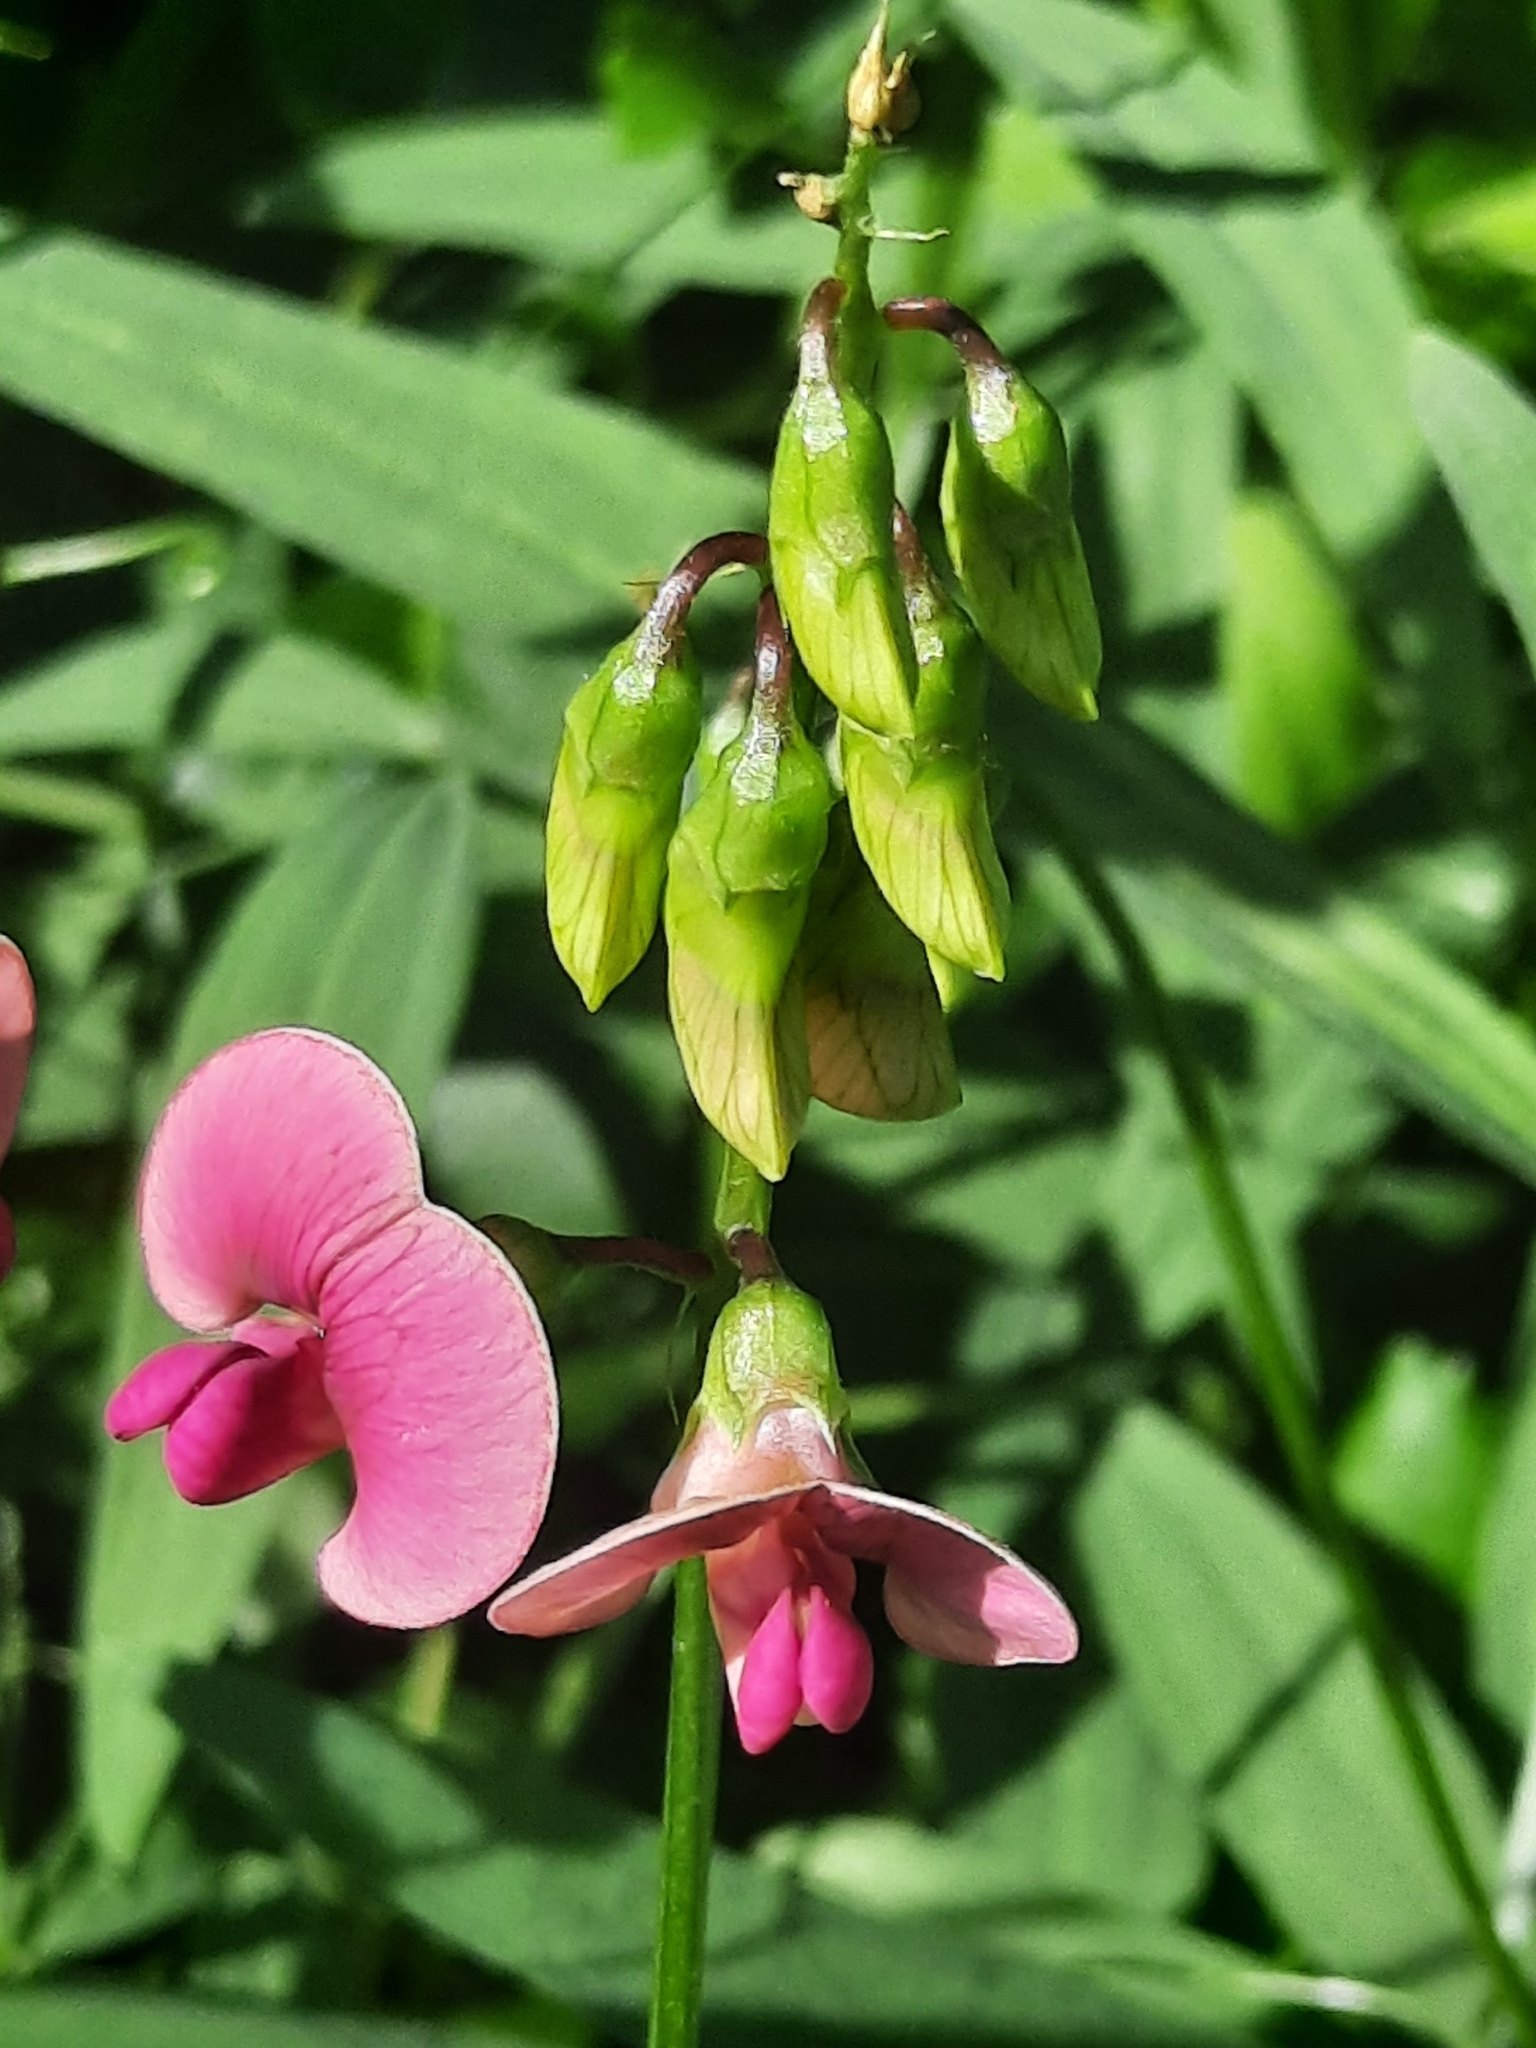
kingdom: Plantae
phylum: Tracheophyta
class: Magnoliopsida
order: Fabales
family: Fabaceae
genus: Lathyrus
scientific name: Lathyrus sylvestris
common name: Flat pea
